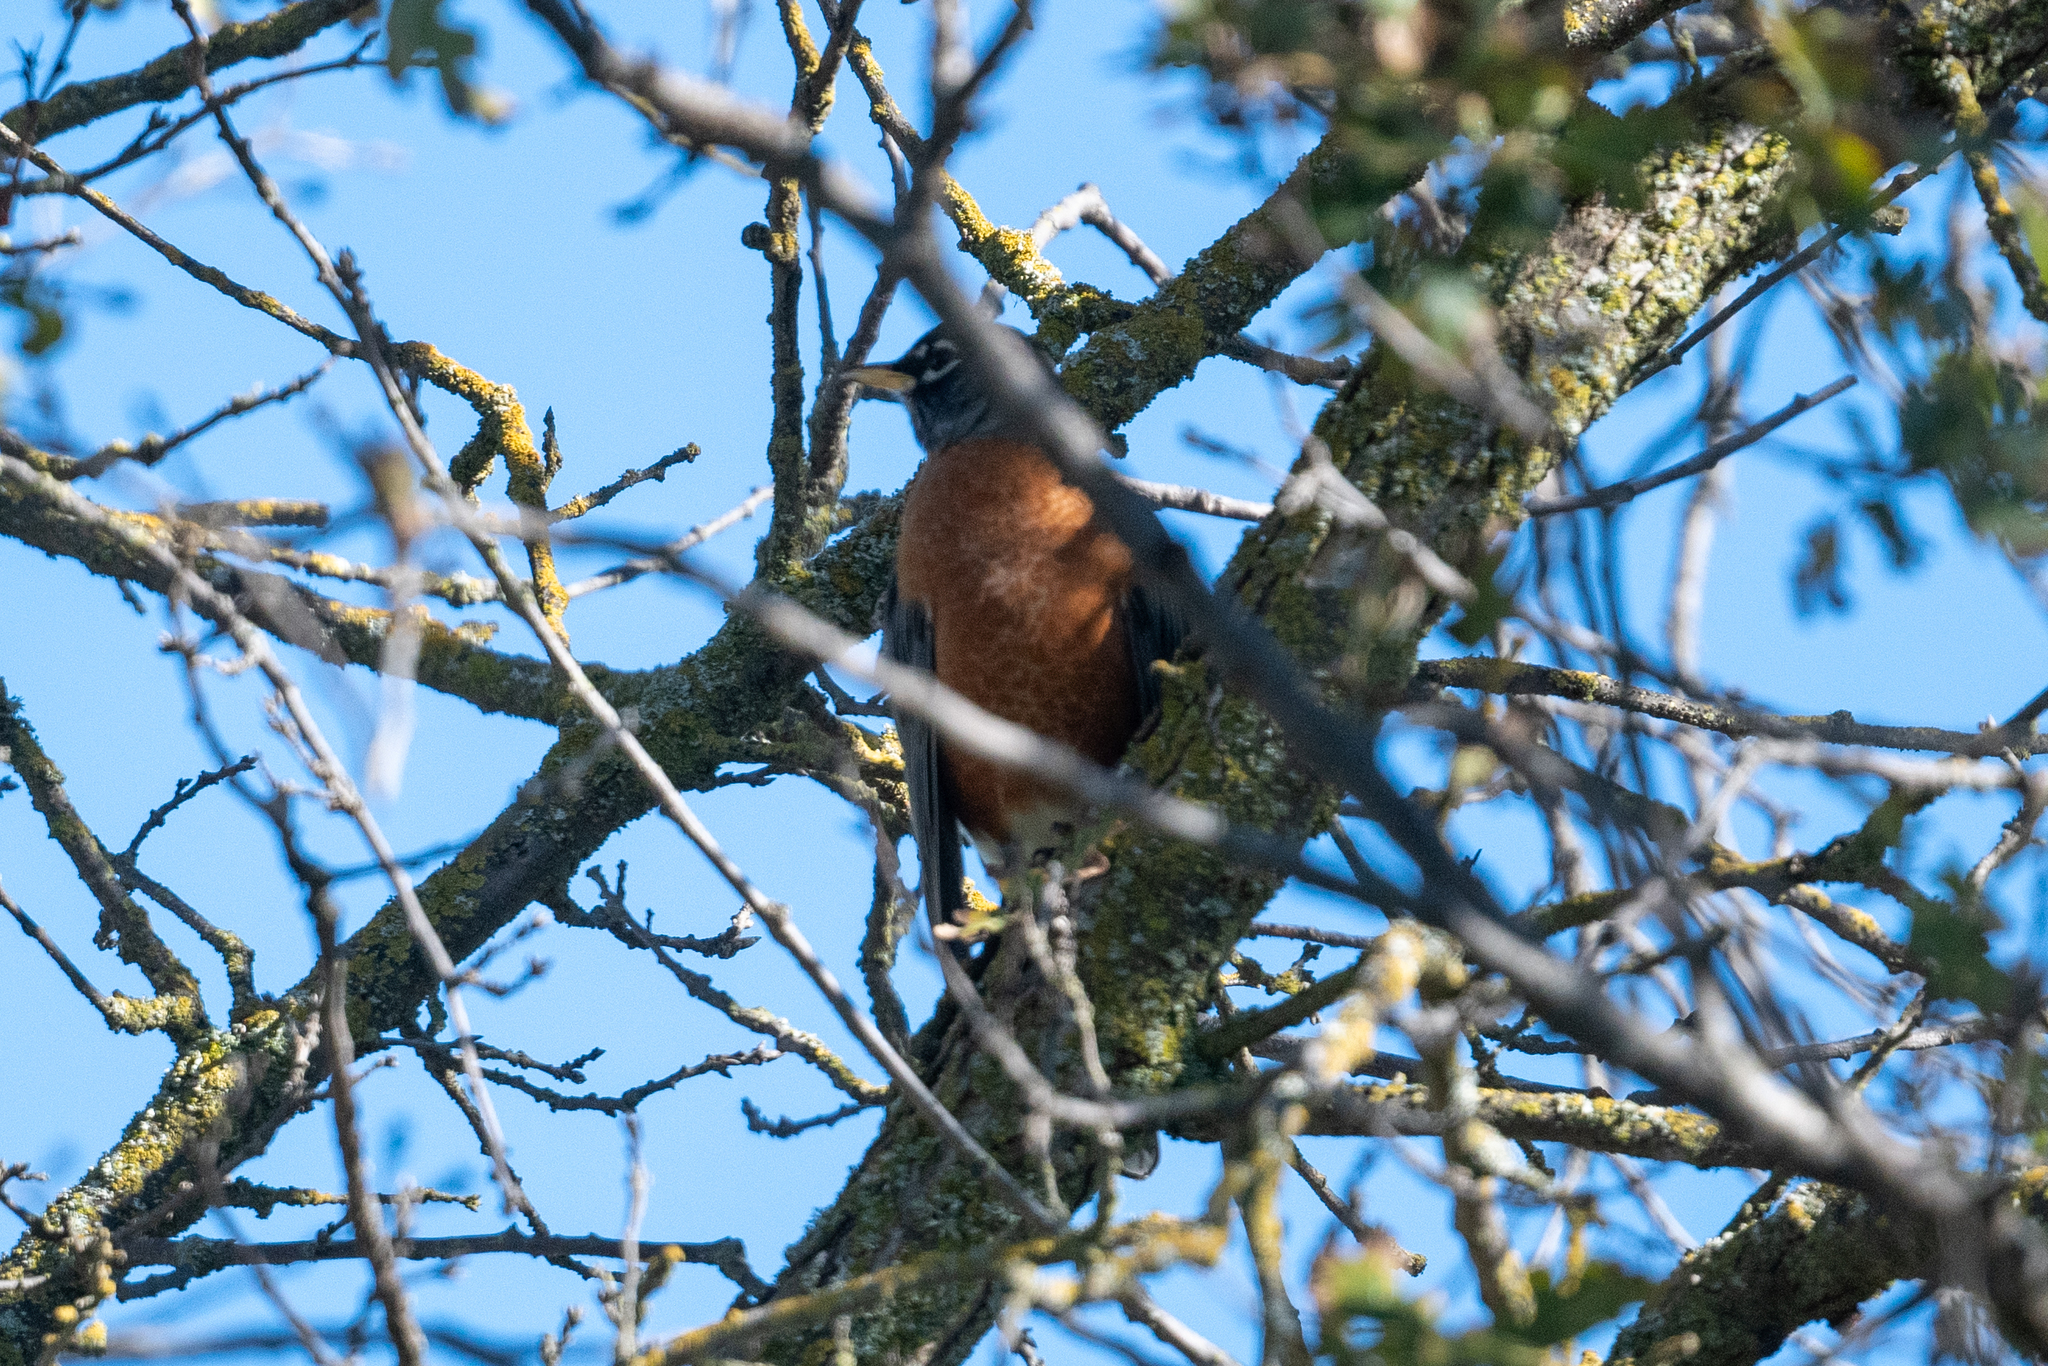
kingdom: Animalia
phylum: Chordata
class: Aves
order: Passeriformes
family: Turdidae
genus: Turdus
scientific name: Turdus migratorius
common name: American robin
